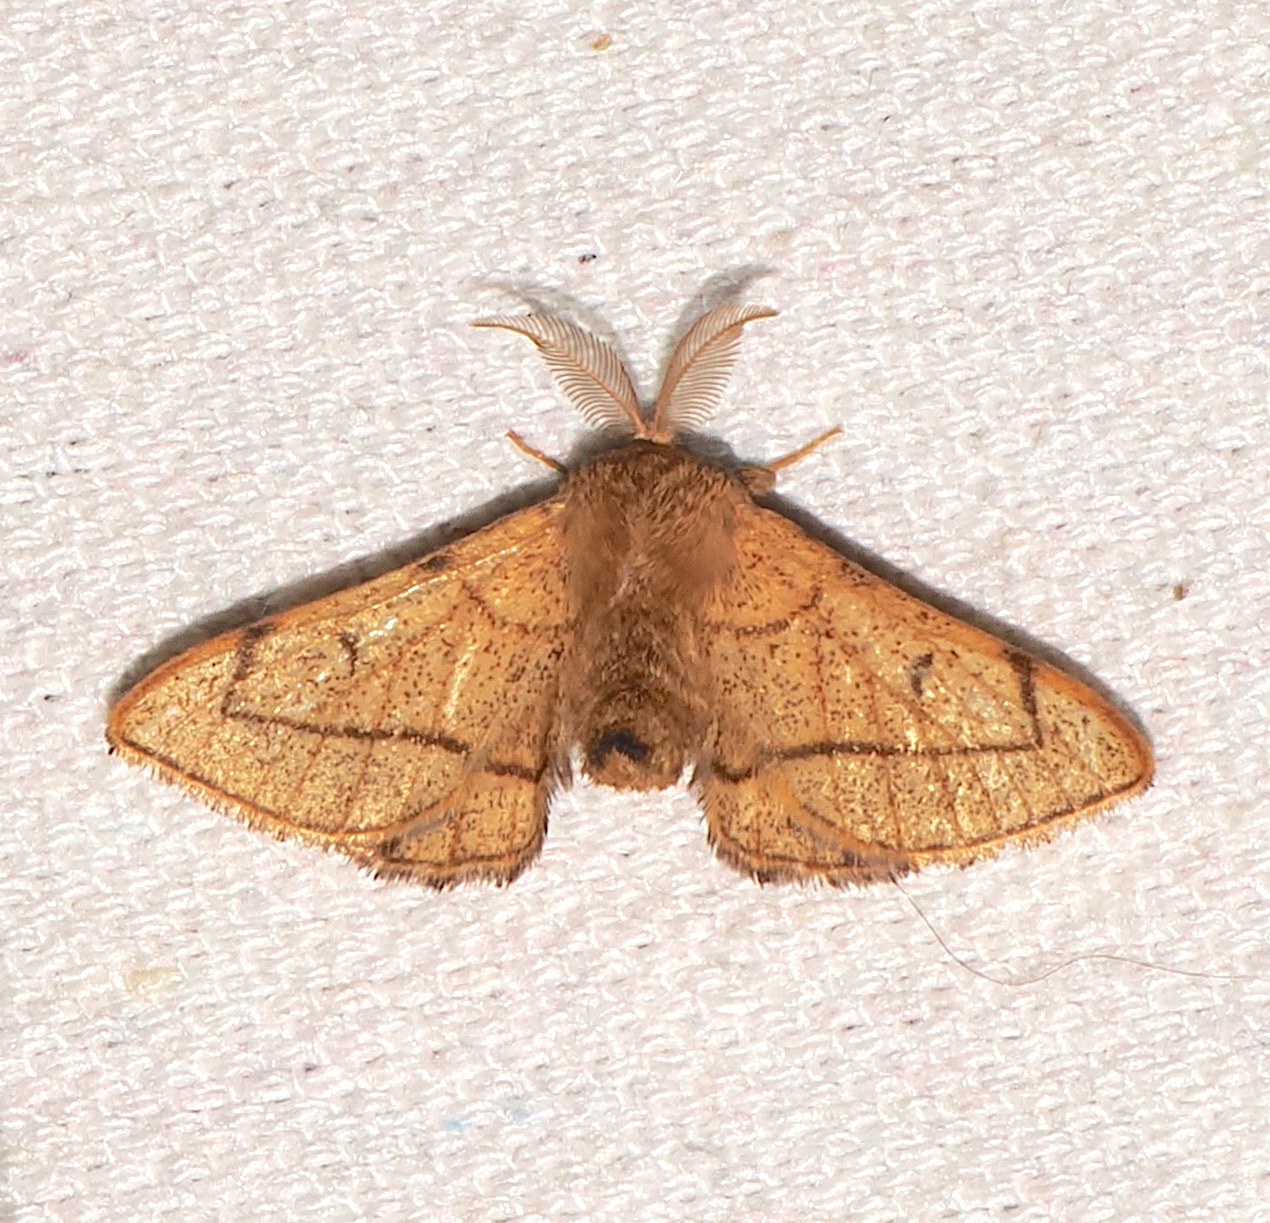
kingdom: Animalia
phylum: Arthropoda
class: Insecta
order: Lepidoptera
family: Mimallonidae
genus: Lurama
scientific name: Lurama quindiuna
